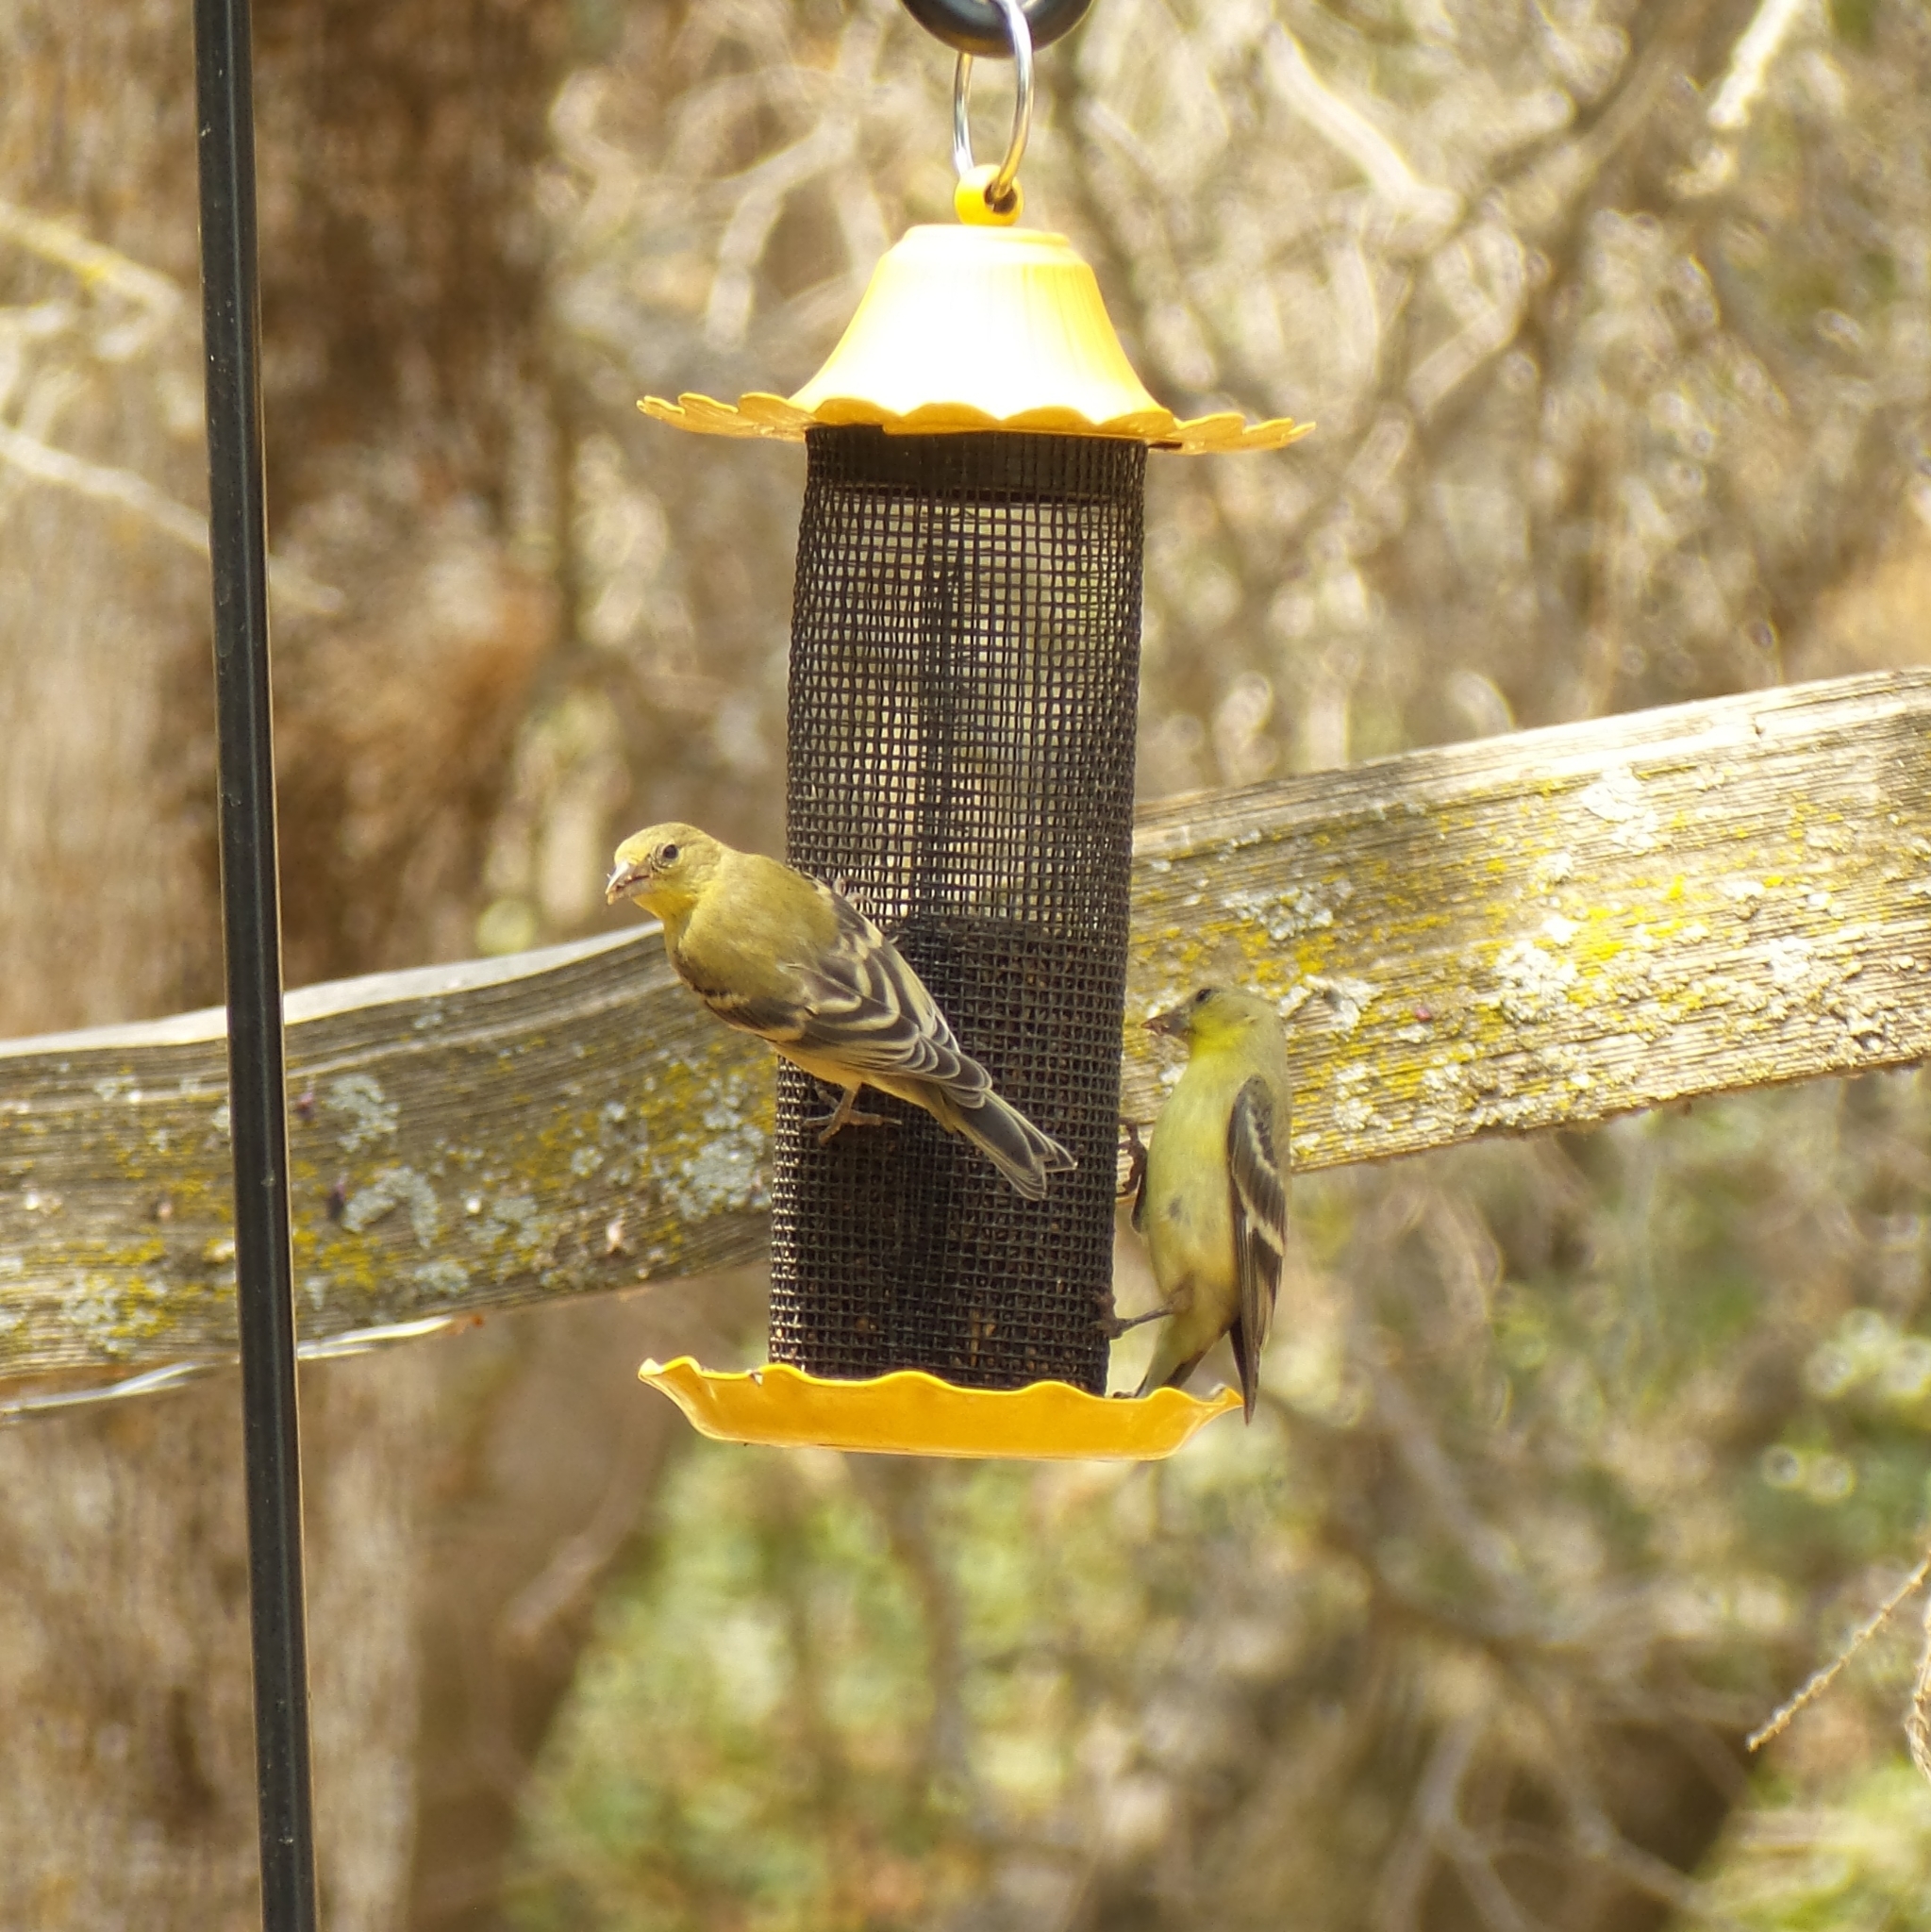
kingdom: Animalia
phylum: Chordata
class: Aves
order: Passeriformes
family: Fringillidae
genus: Spinus
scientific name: Spinus psaltria
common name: Lesser goldfinch
